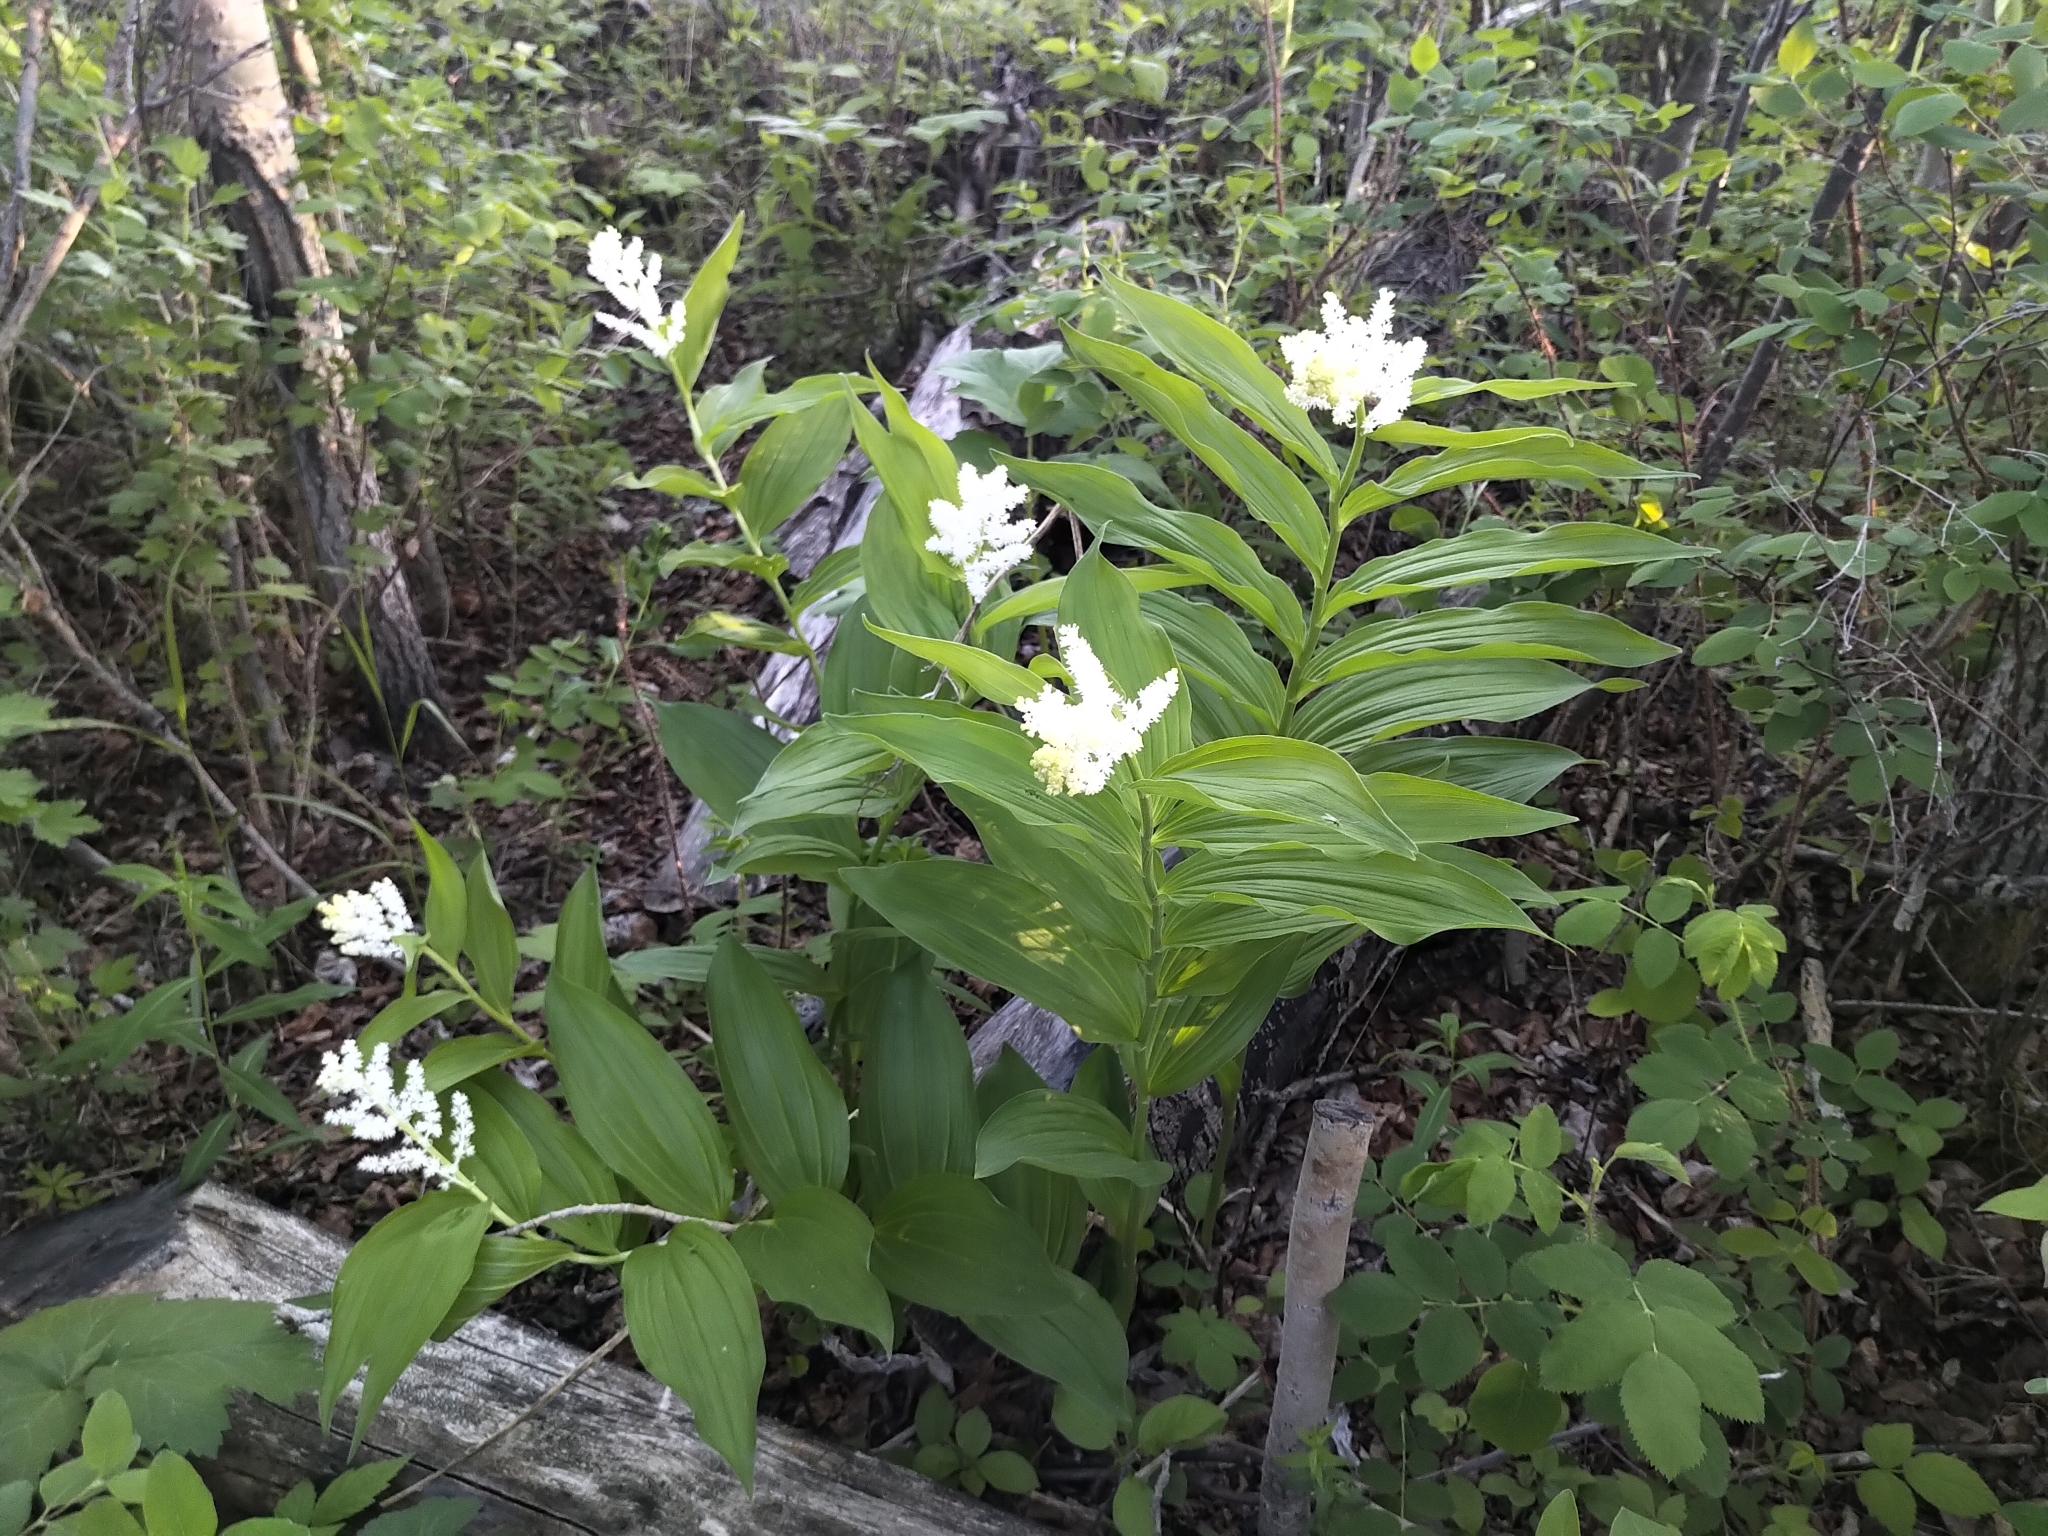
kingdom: Plantae
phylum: Tracheophyta
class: Liliopsida
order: Asparagales
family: Asparagaceae
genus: Maianthemum
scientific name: Maianthemum racemosum
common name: False spikenard
